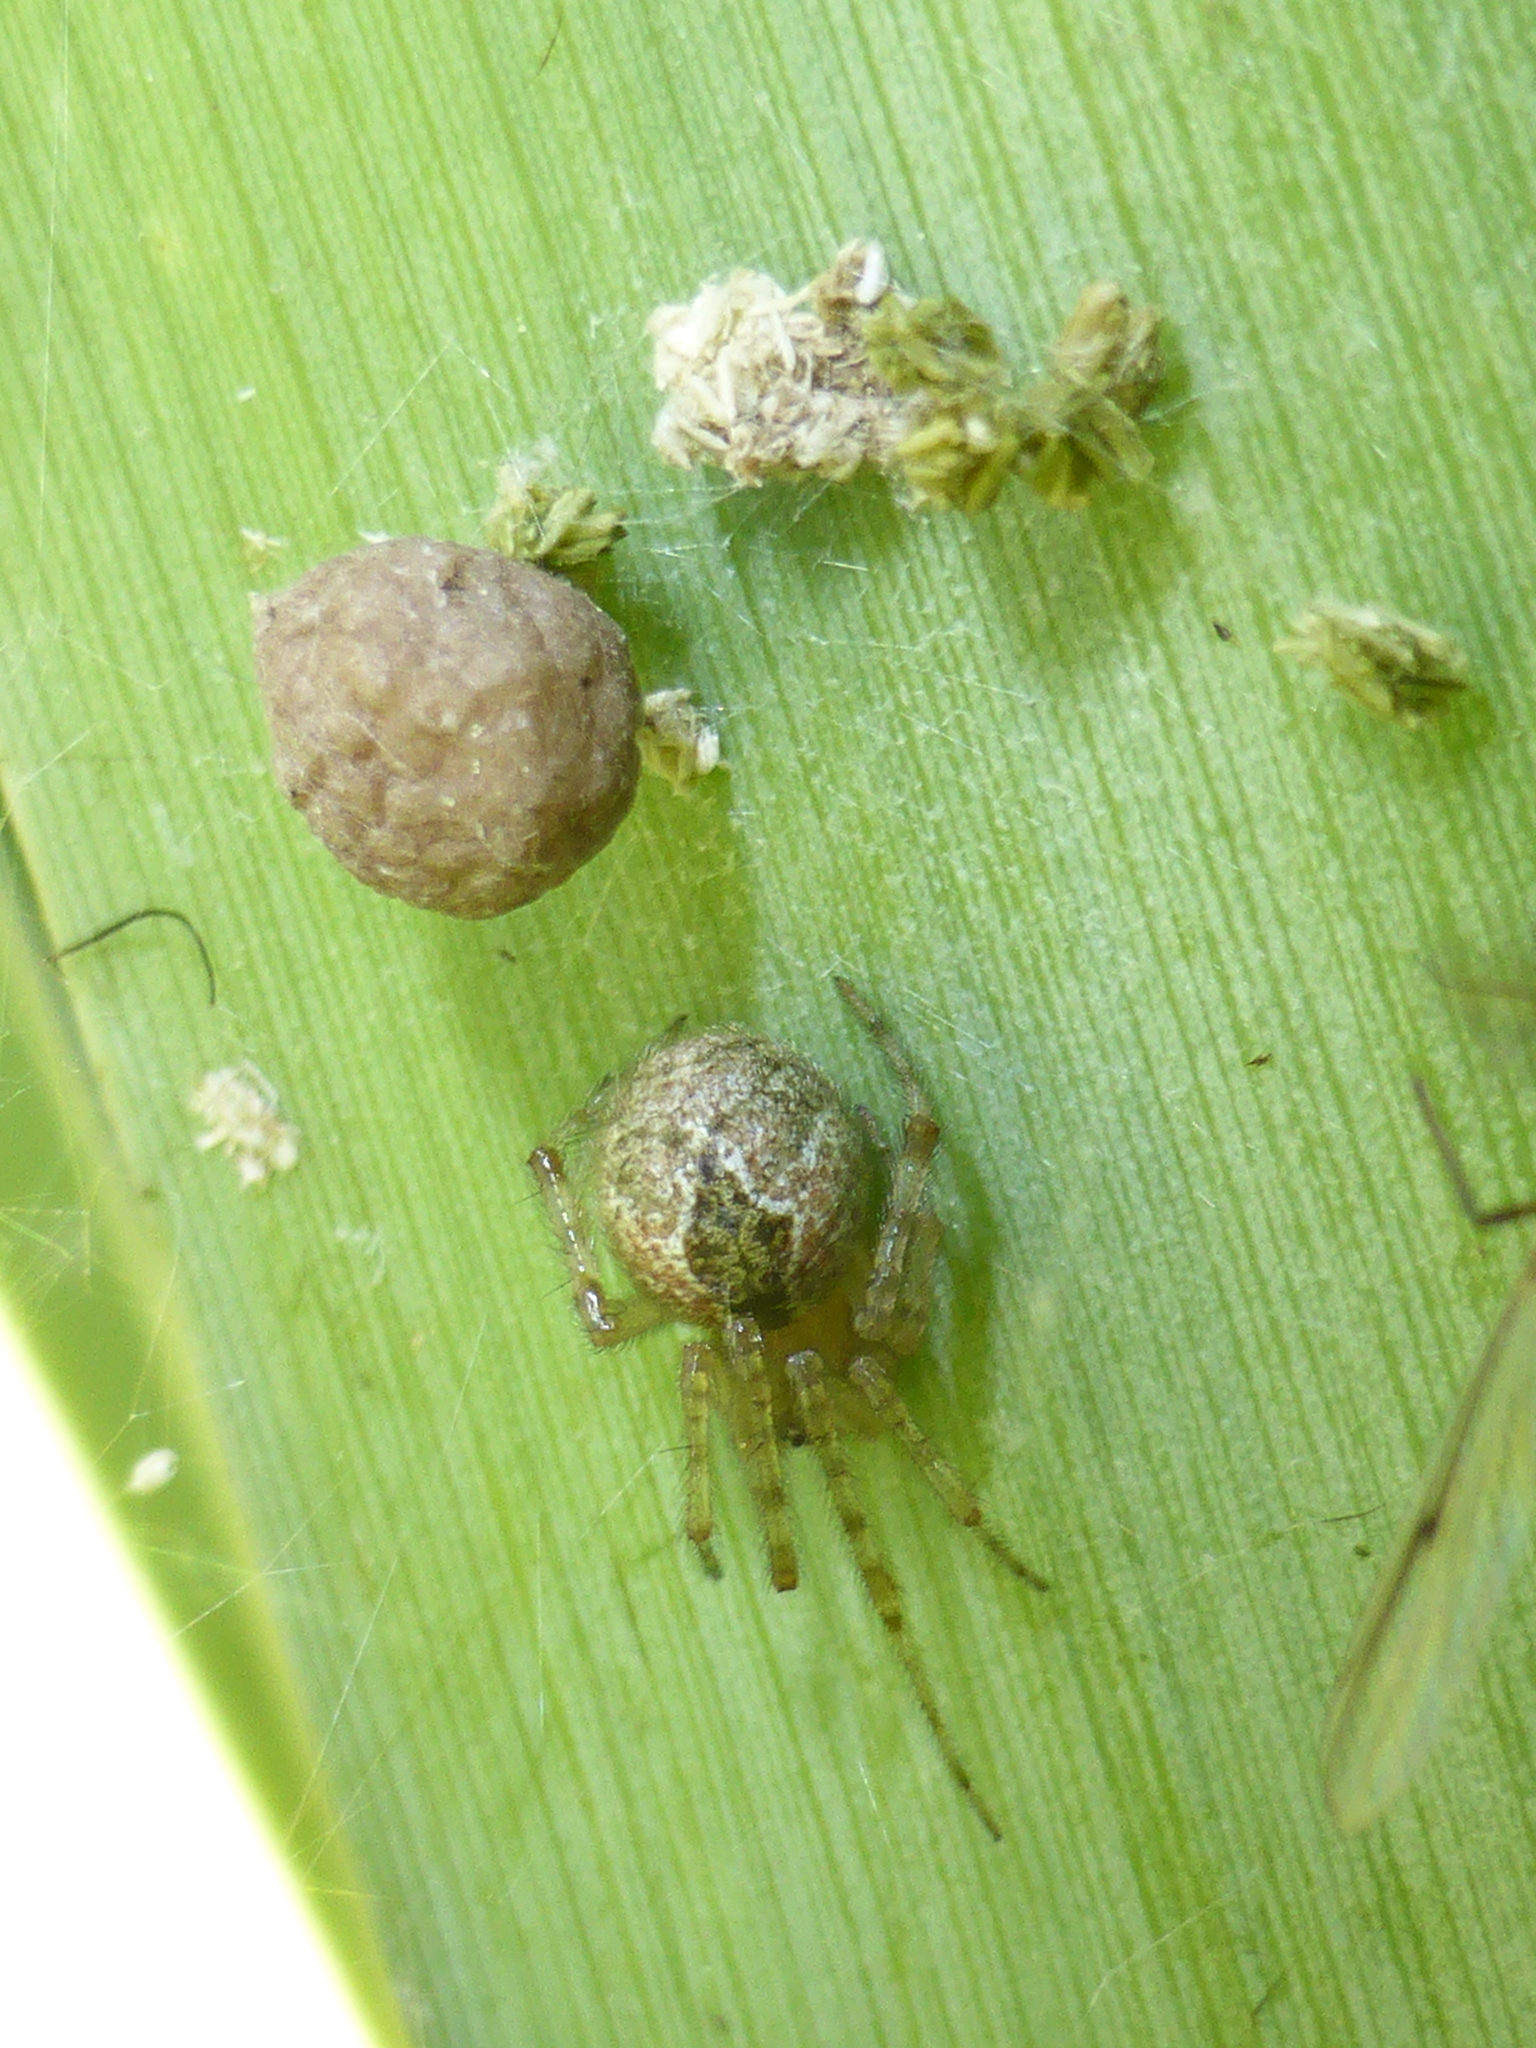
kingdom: Animalia
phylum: Arthropoda
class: Arachnida
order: Araneae
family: Theridiidae
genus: Cryptachaea
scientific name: Cryptachaea veruculata
